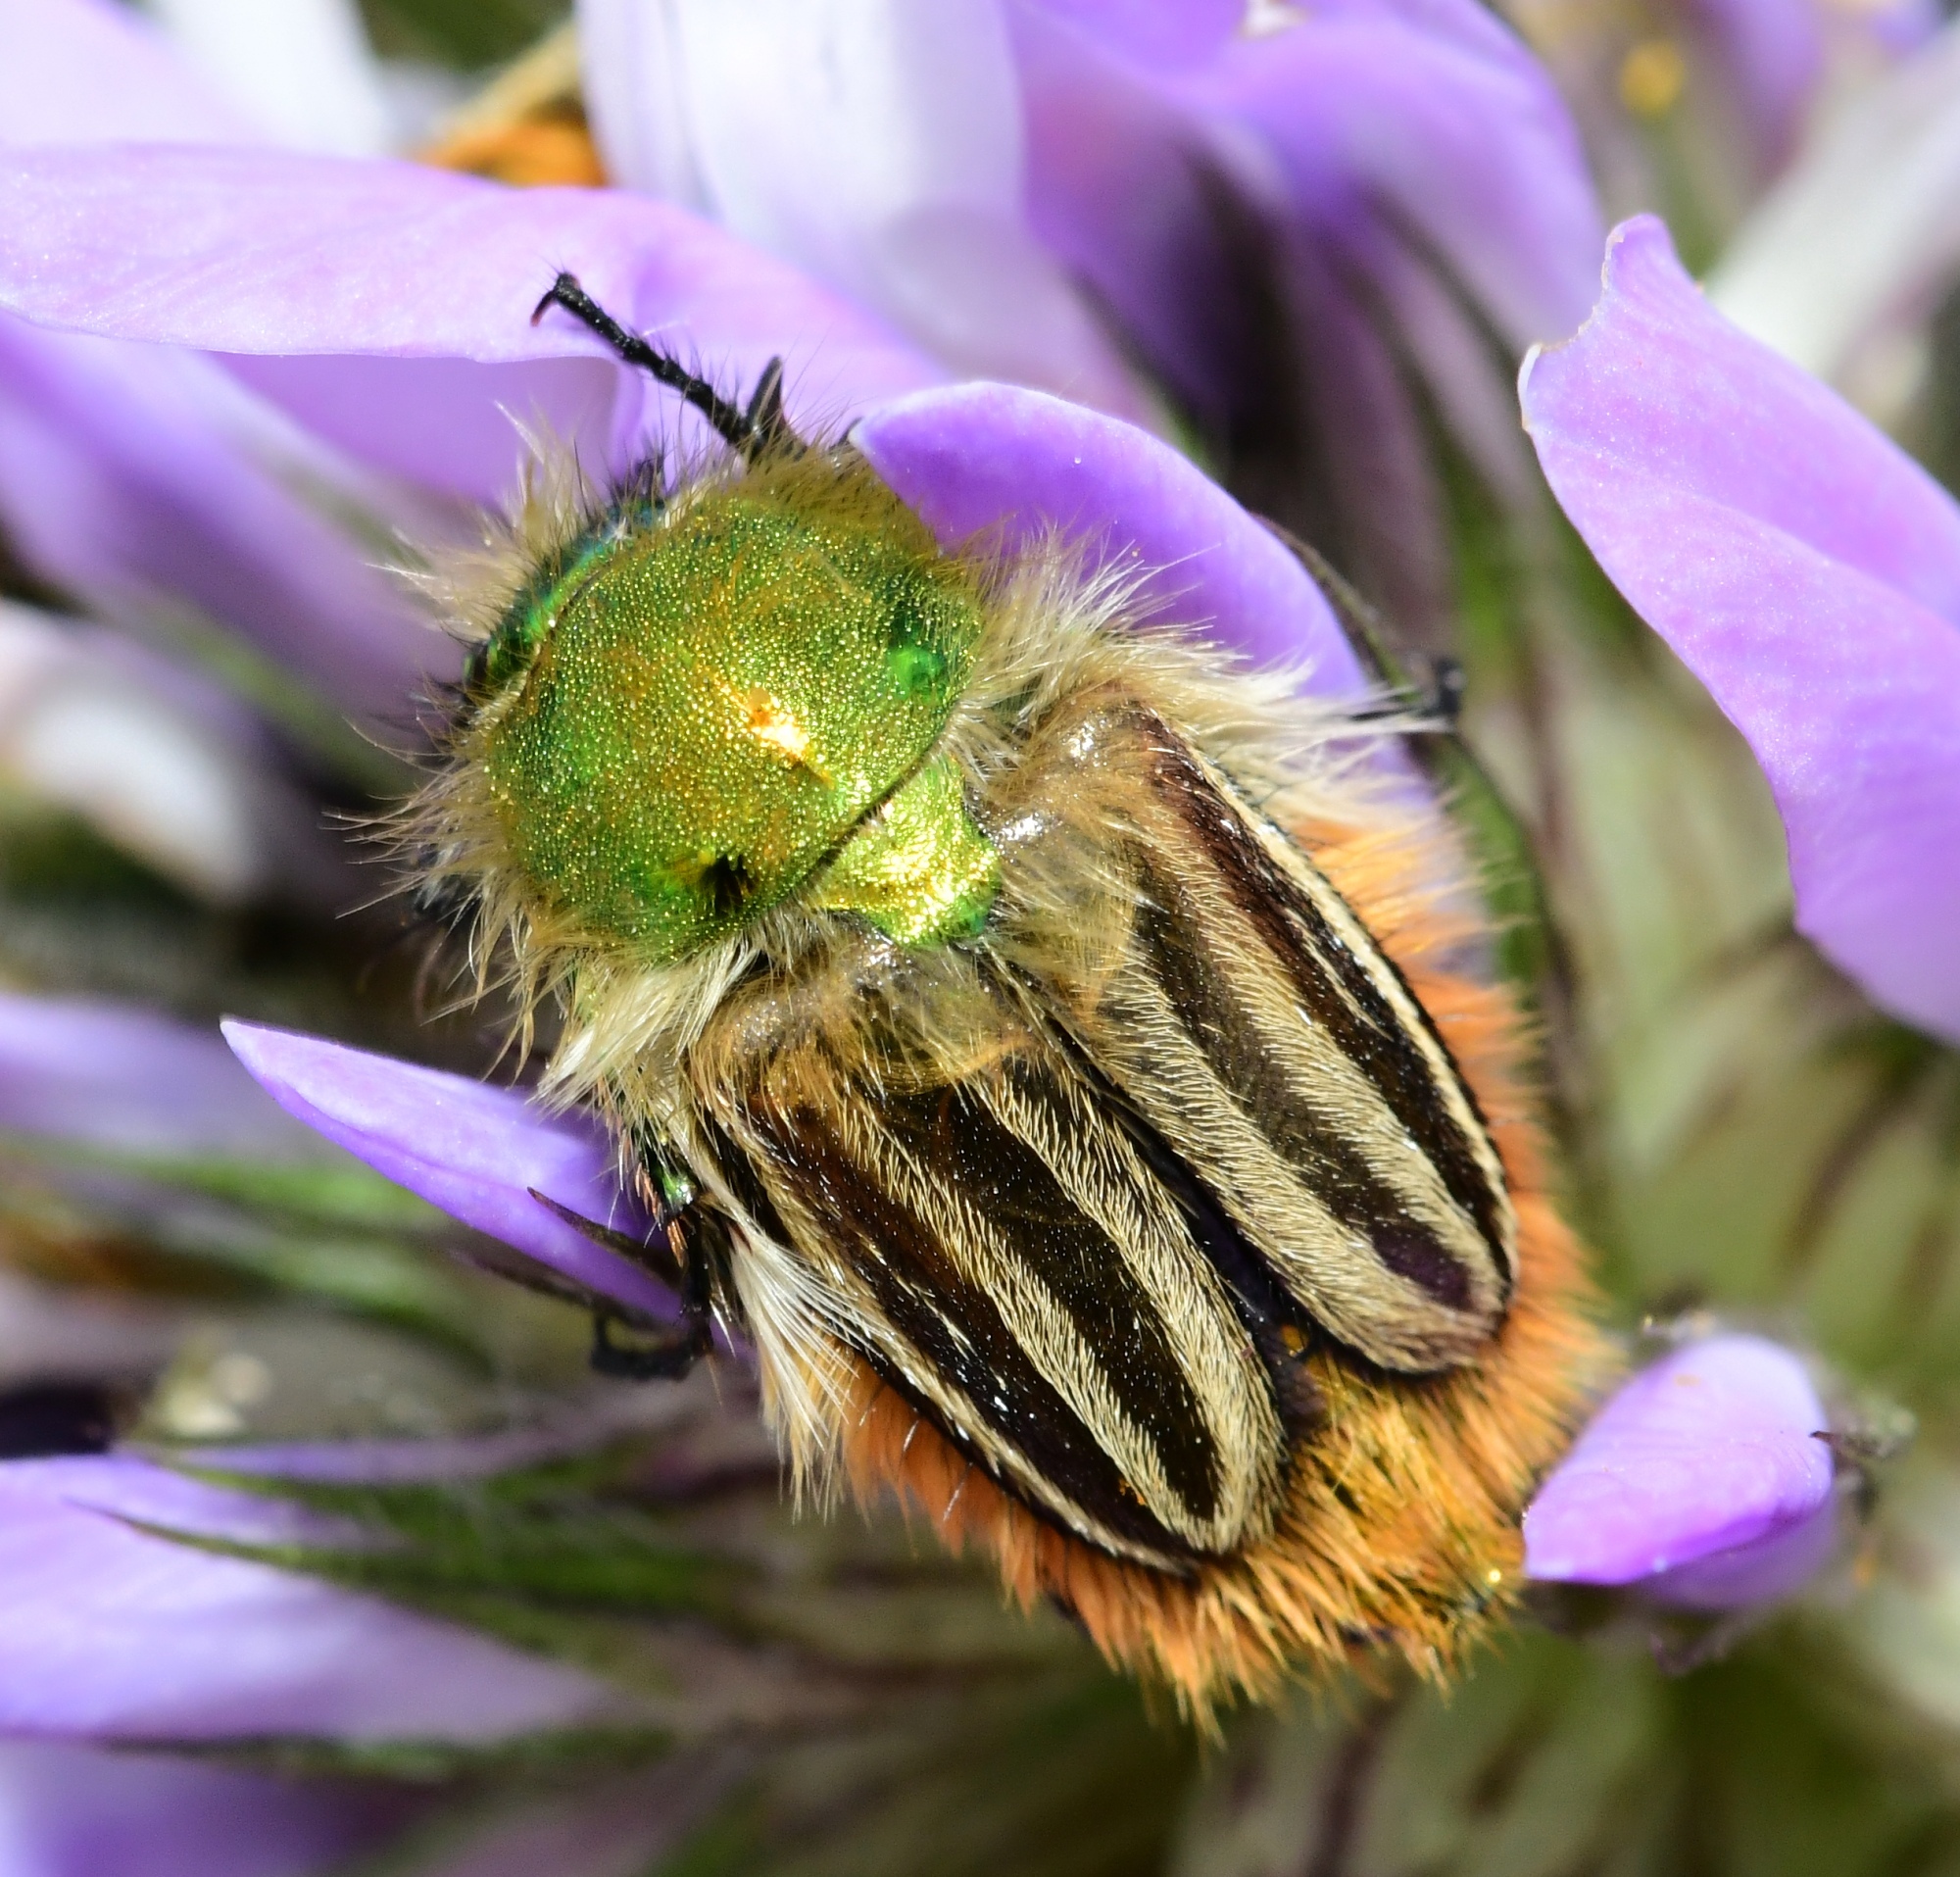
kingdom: Animalia
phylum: Arthropoda
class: Insecta
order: Coleoptera
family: Glaphyridae
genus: Eulasia
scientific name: Eulasia pareyssei
